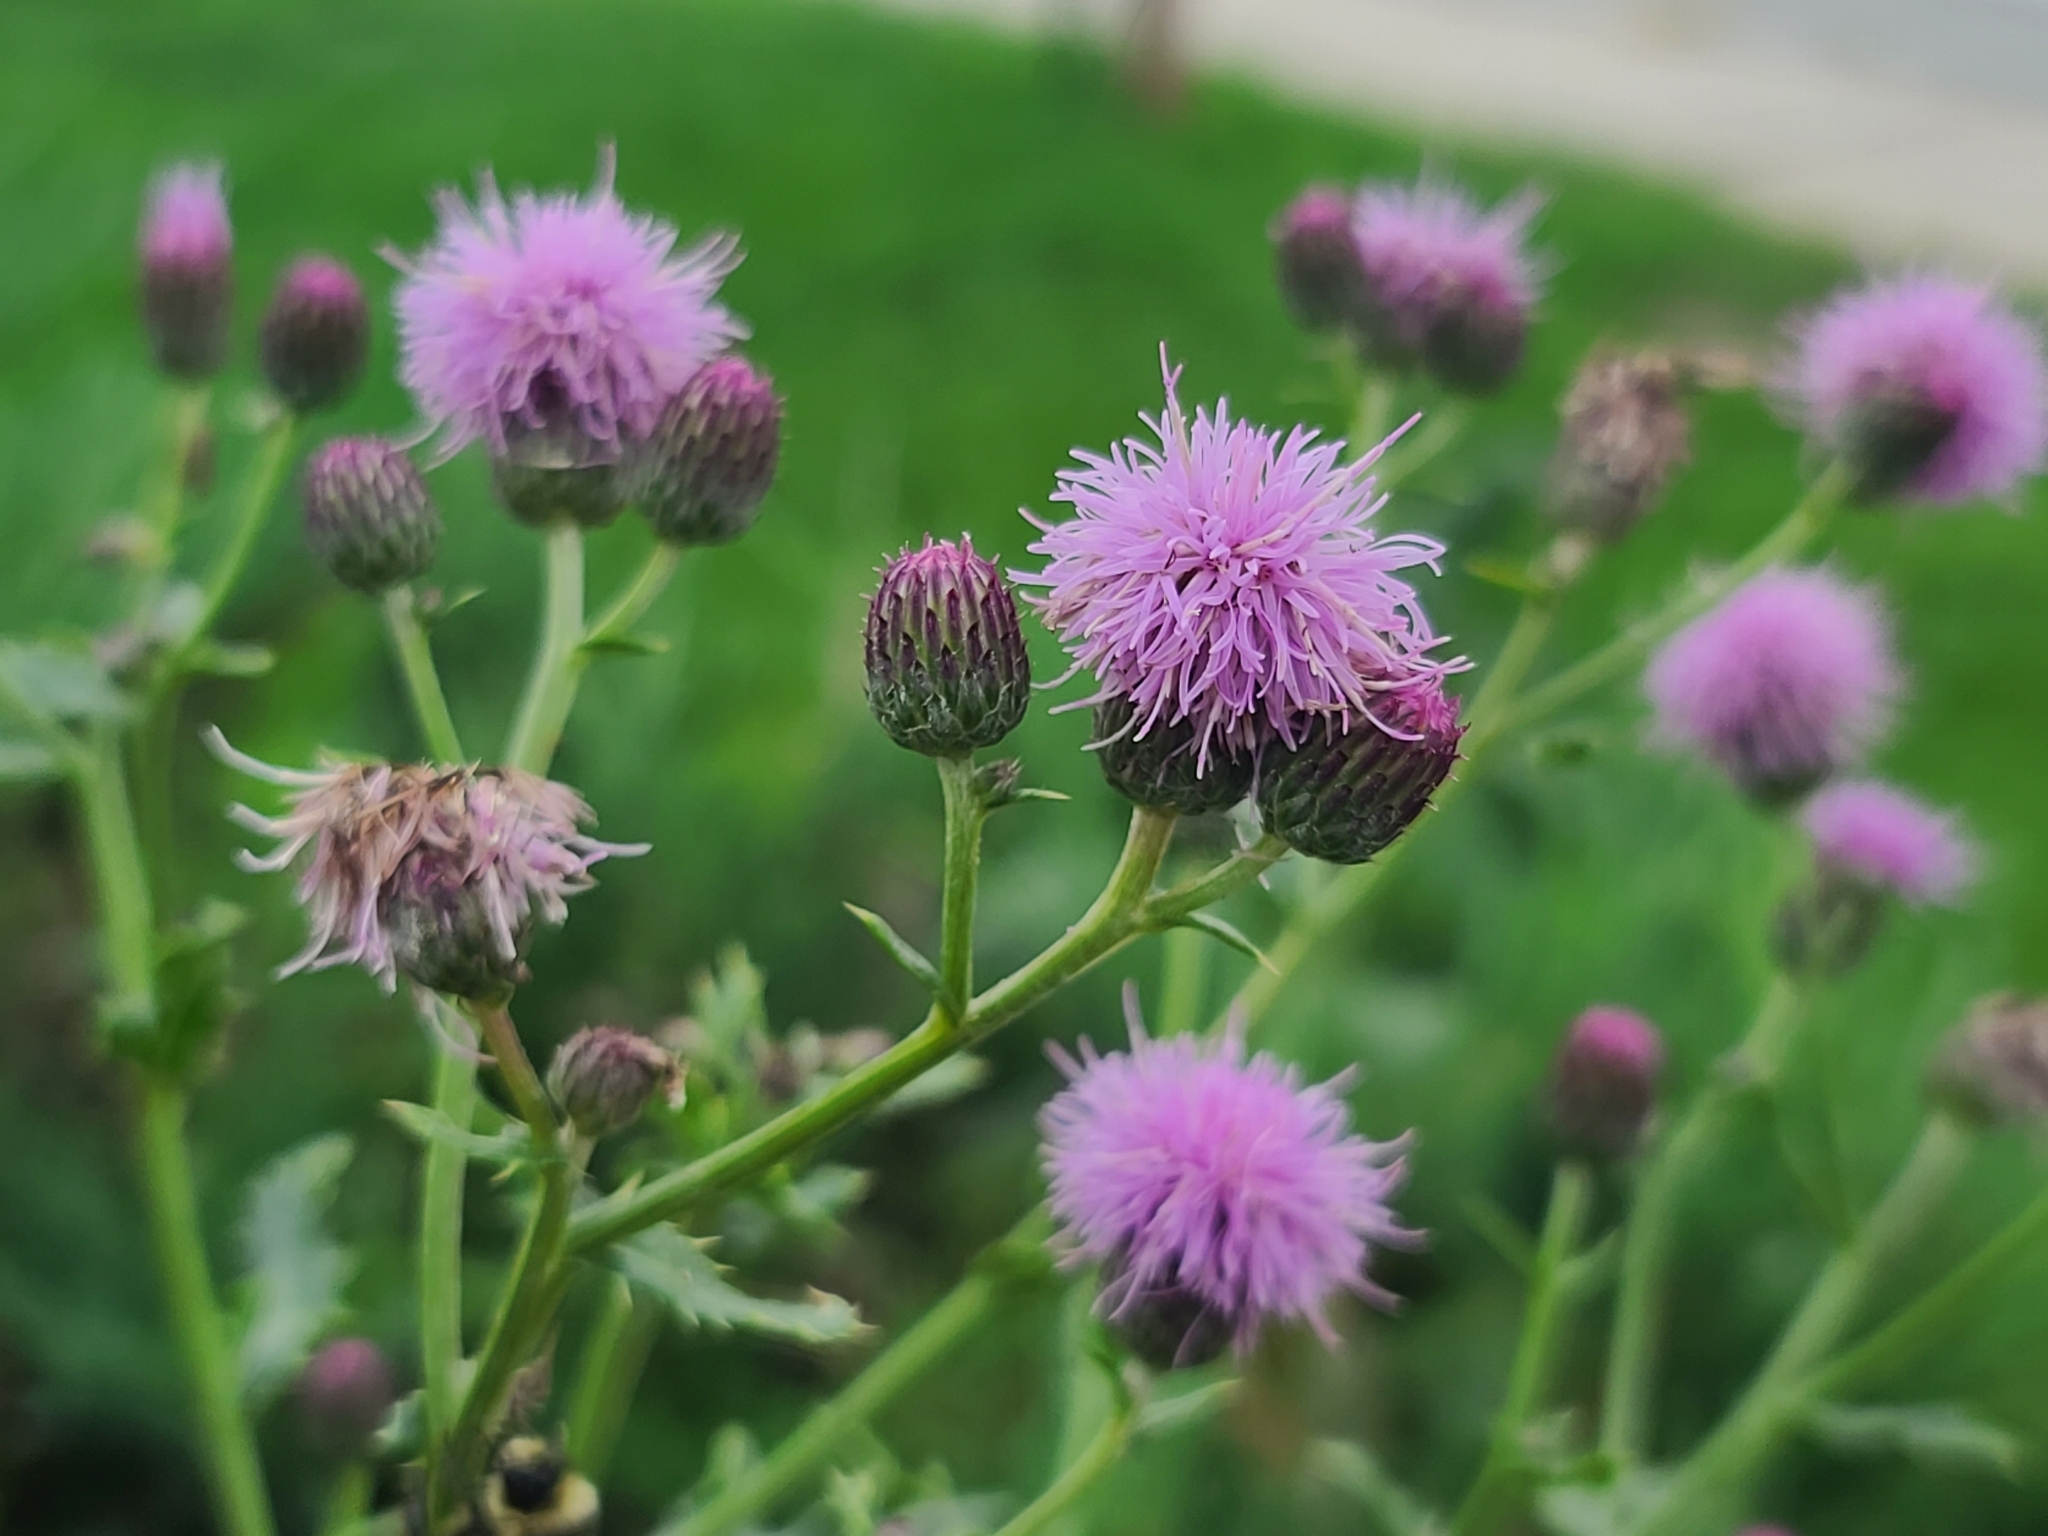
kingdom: Plantae
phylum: Tracheophyta
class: Magnoliopsida
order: Asterales
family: Asteraceae
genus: Cirsium
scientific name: Cirsium arvense
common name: Creeping thistle
